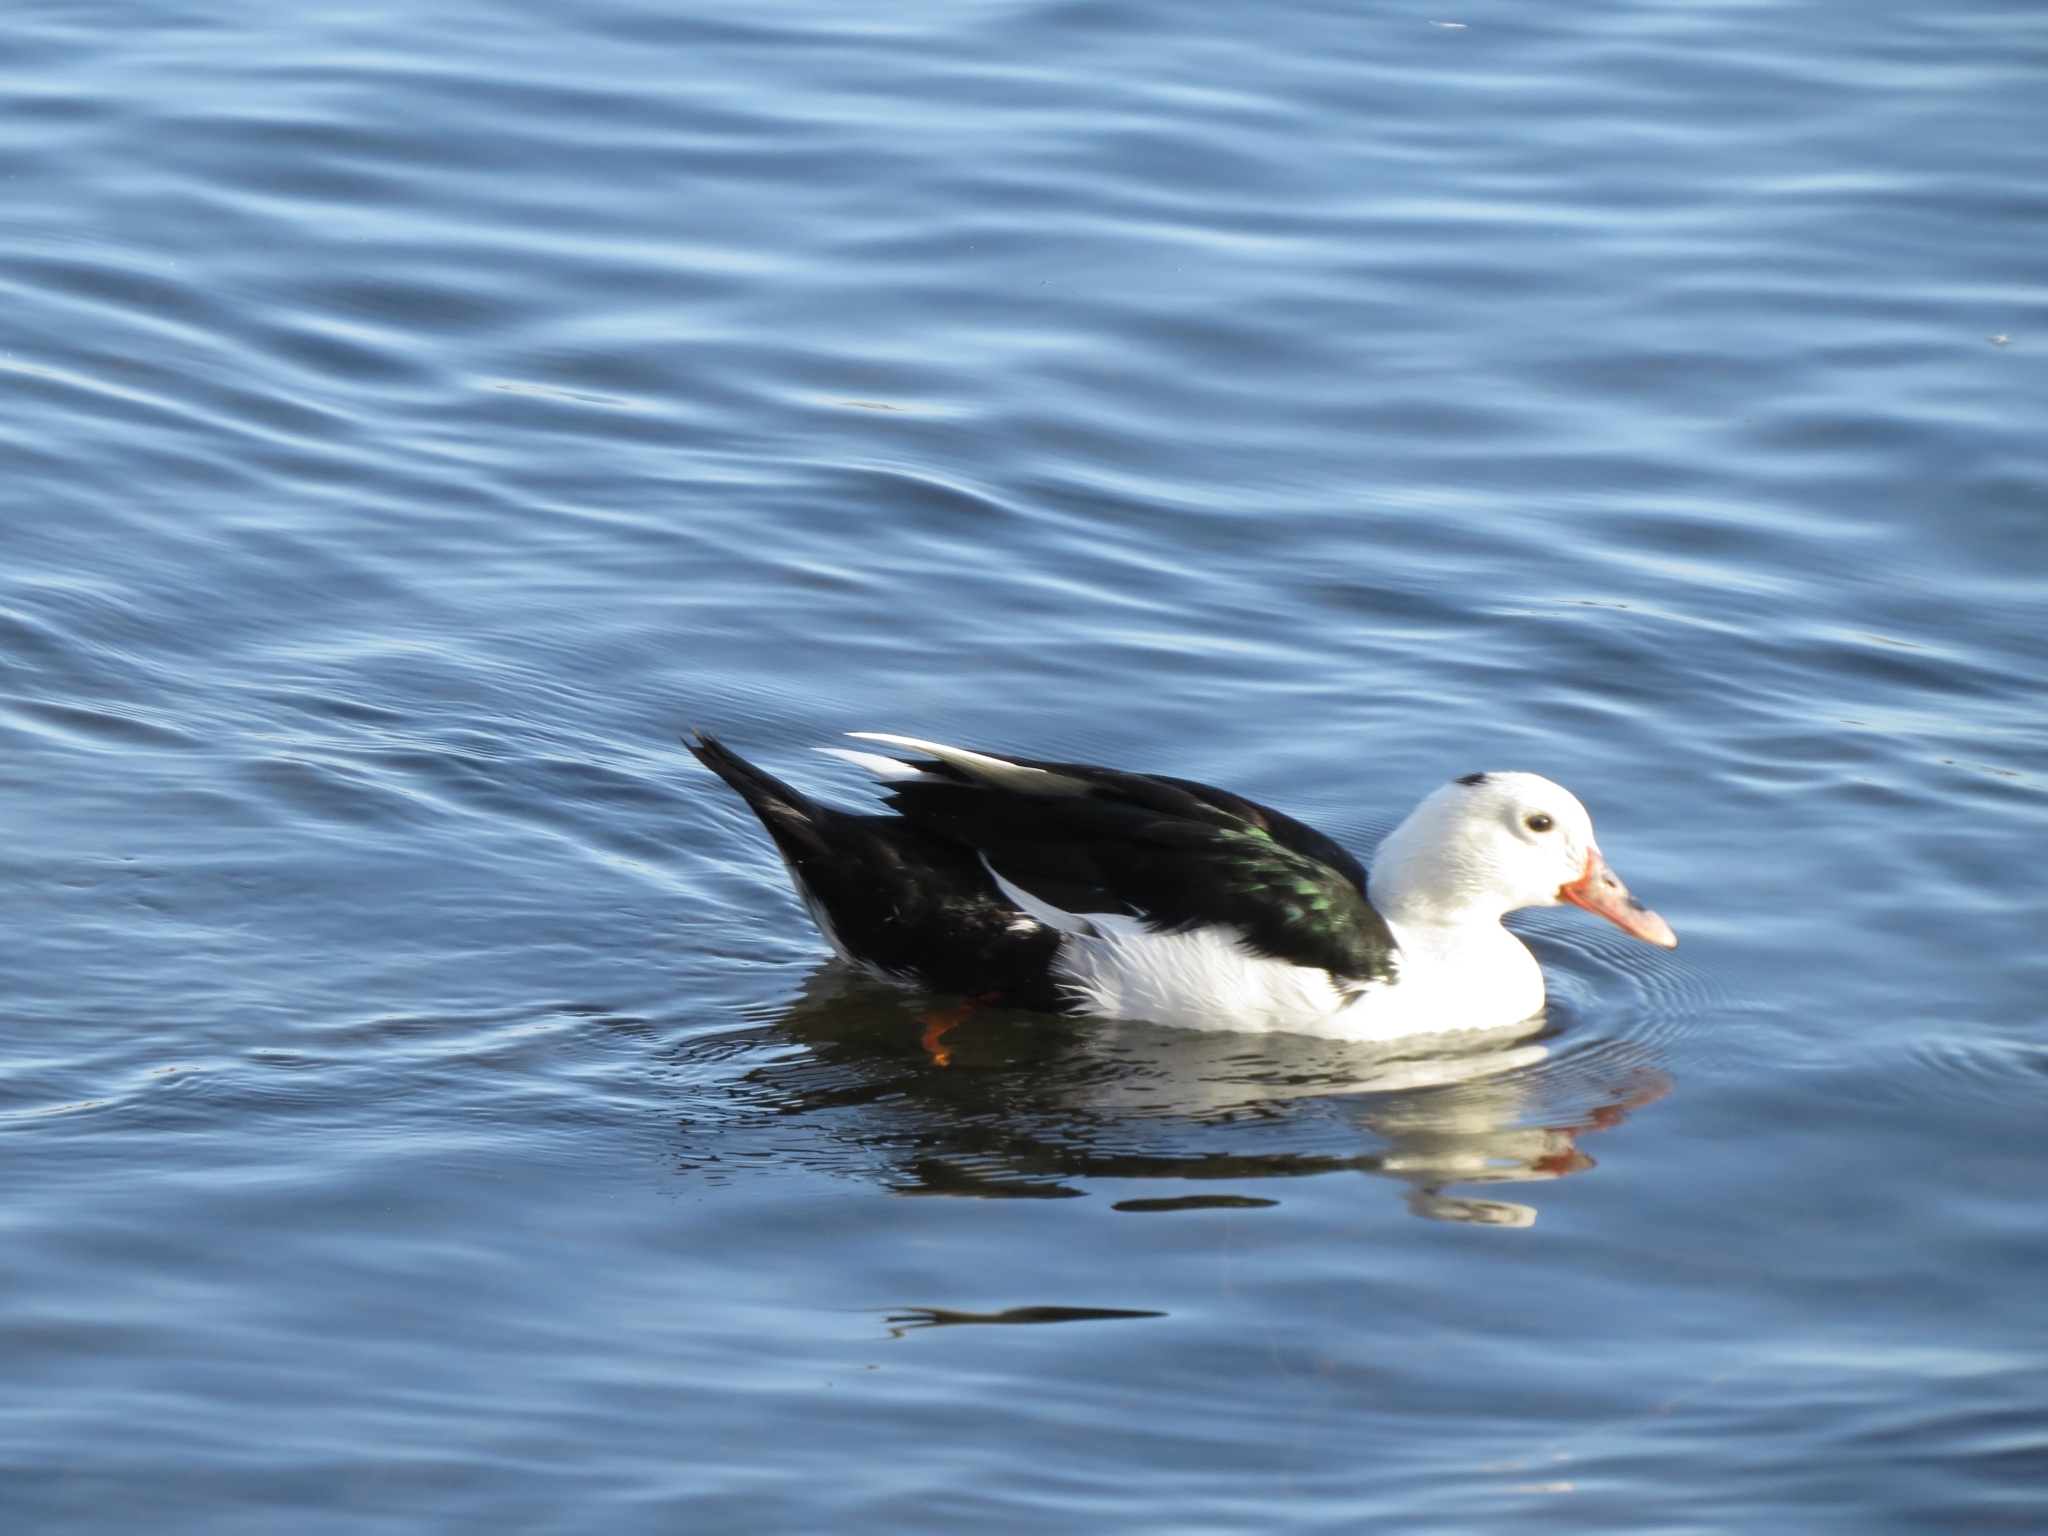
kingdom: Animalia
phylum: Chordata
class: Aves
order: Anseriformes
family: Anatidae
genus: Cairina
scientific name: Cairina moschata
